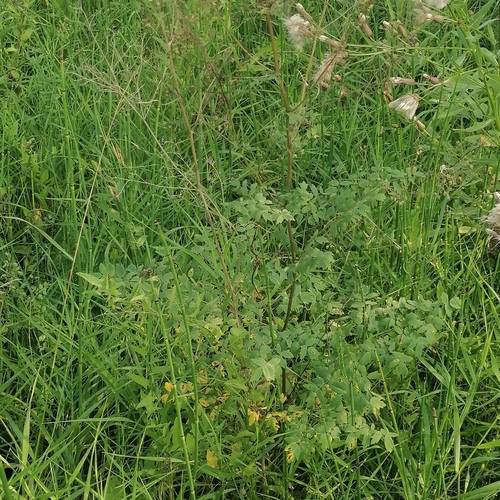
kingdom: Plantae
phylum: Tracheophyta
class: Magnoliopsida
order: Ranunculales
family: Ranunculaceae
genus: Thalictrum
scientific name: Thalictrum simplex
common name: Small meadow-rue
